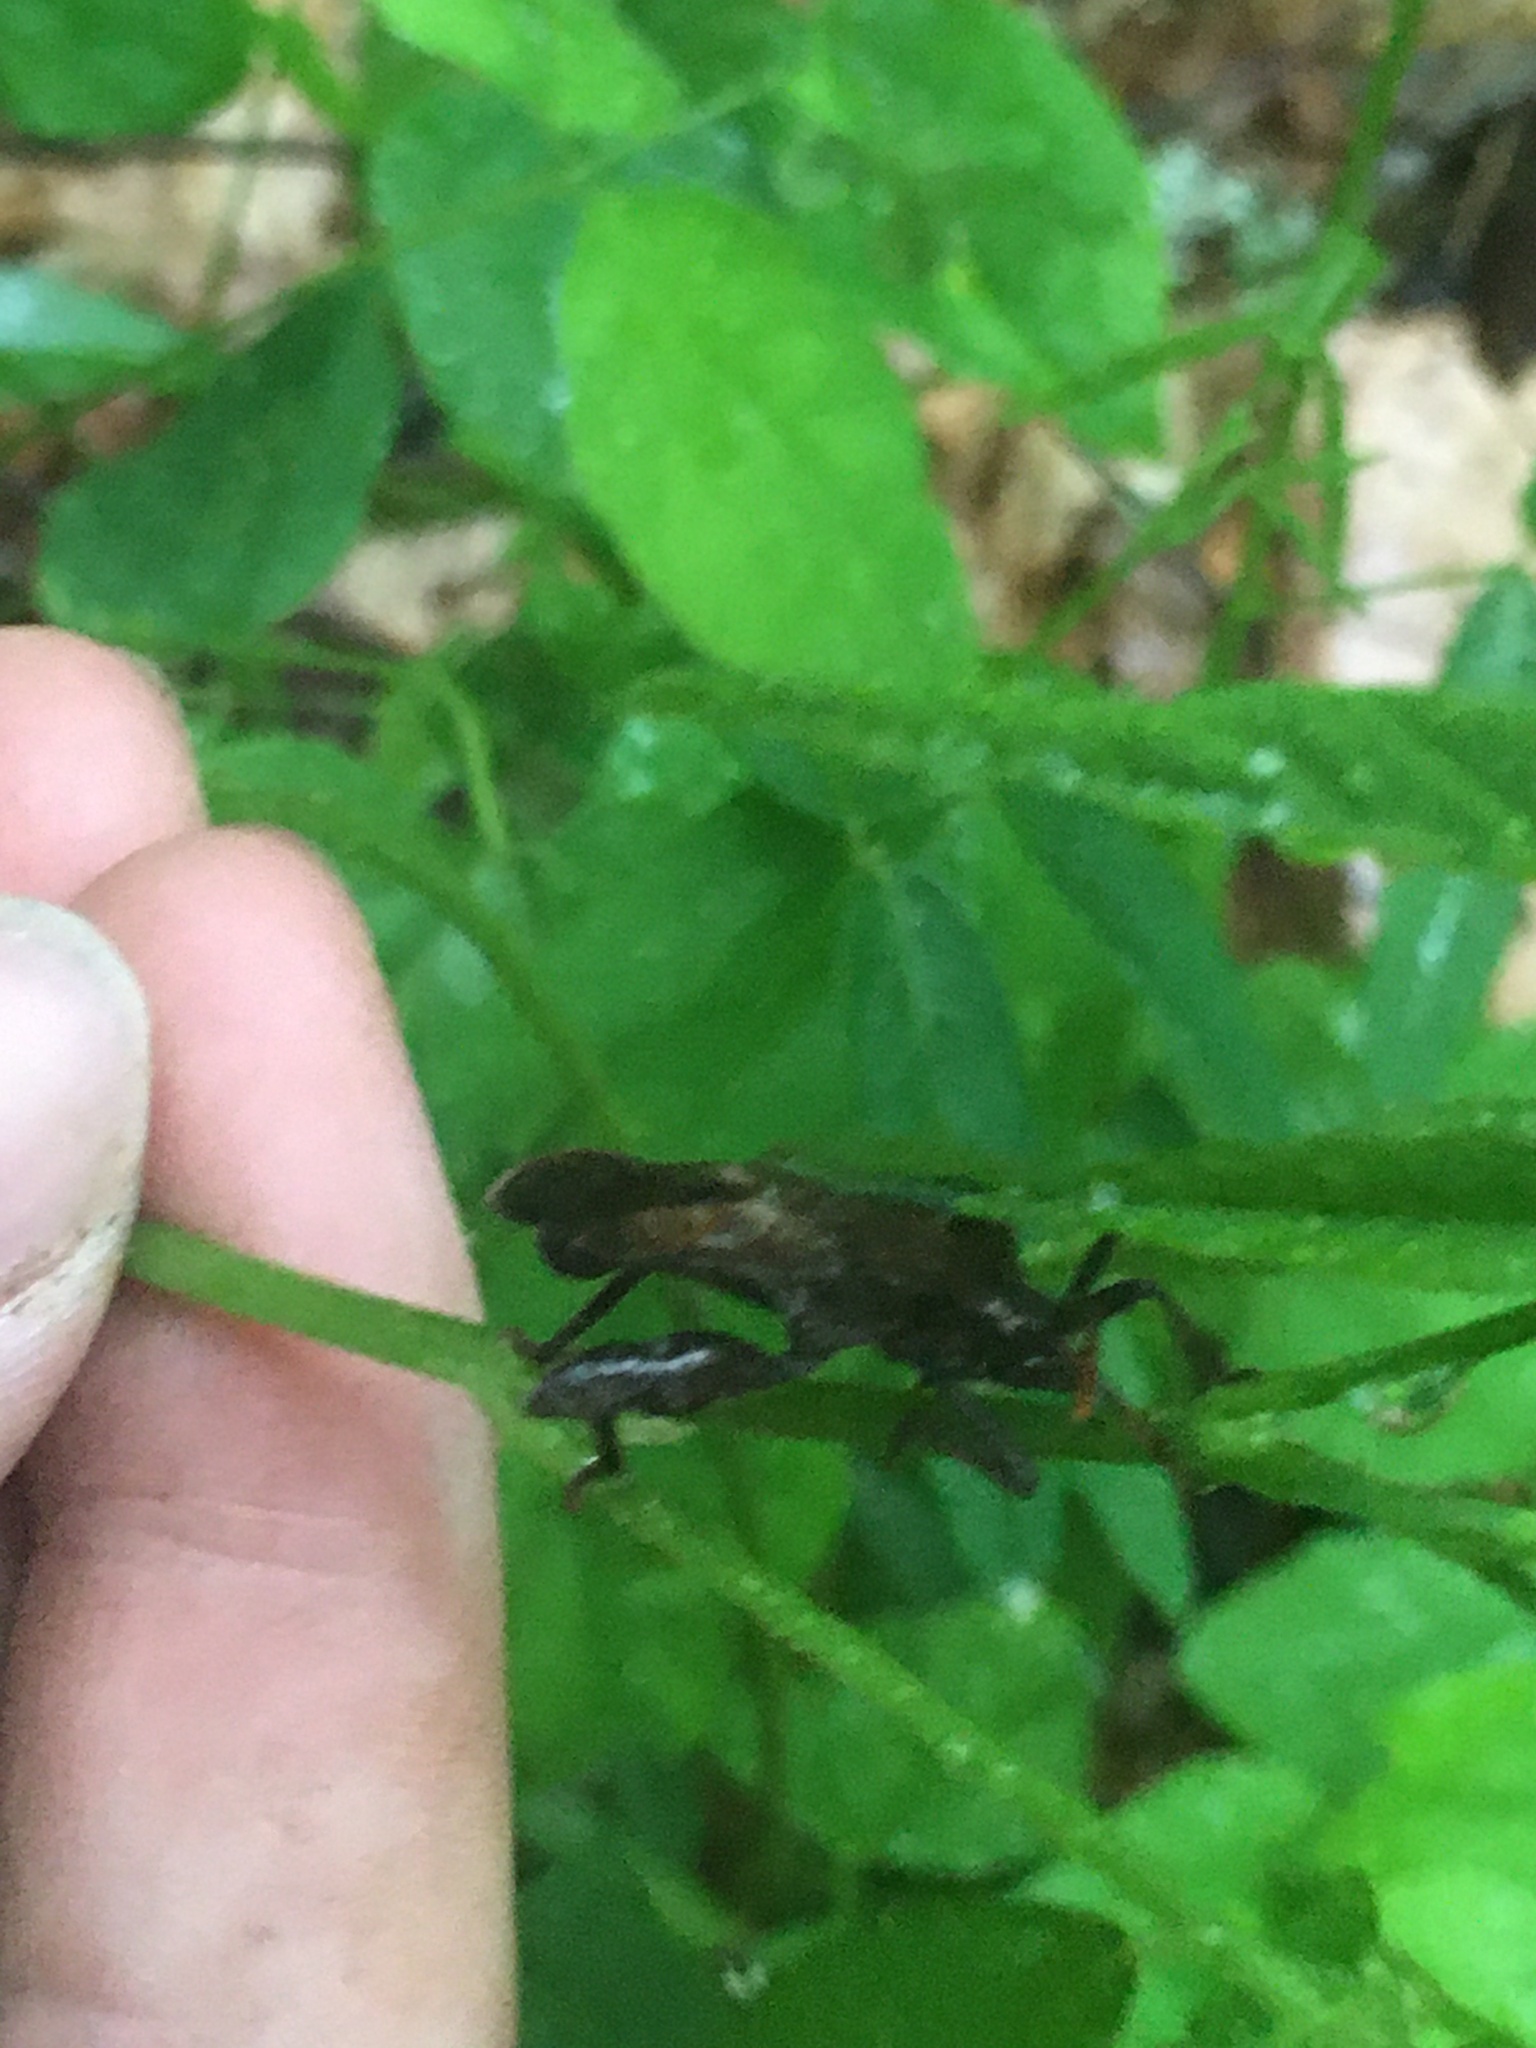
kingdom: Animalia
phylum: Arthropoda
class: Insecta
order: Hemiptera
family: Coreidae
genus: Piezogaster
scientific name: Piezogaster calcarator
